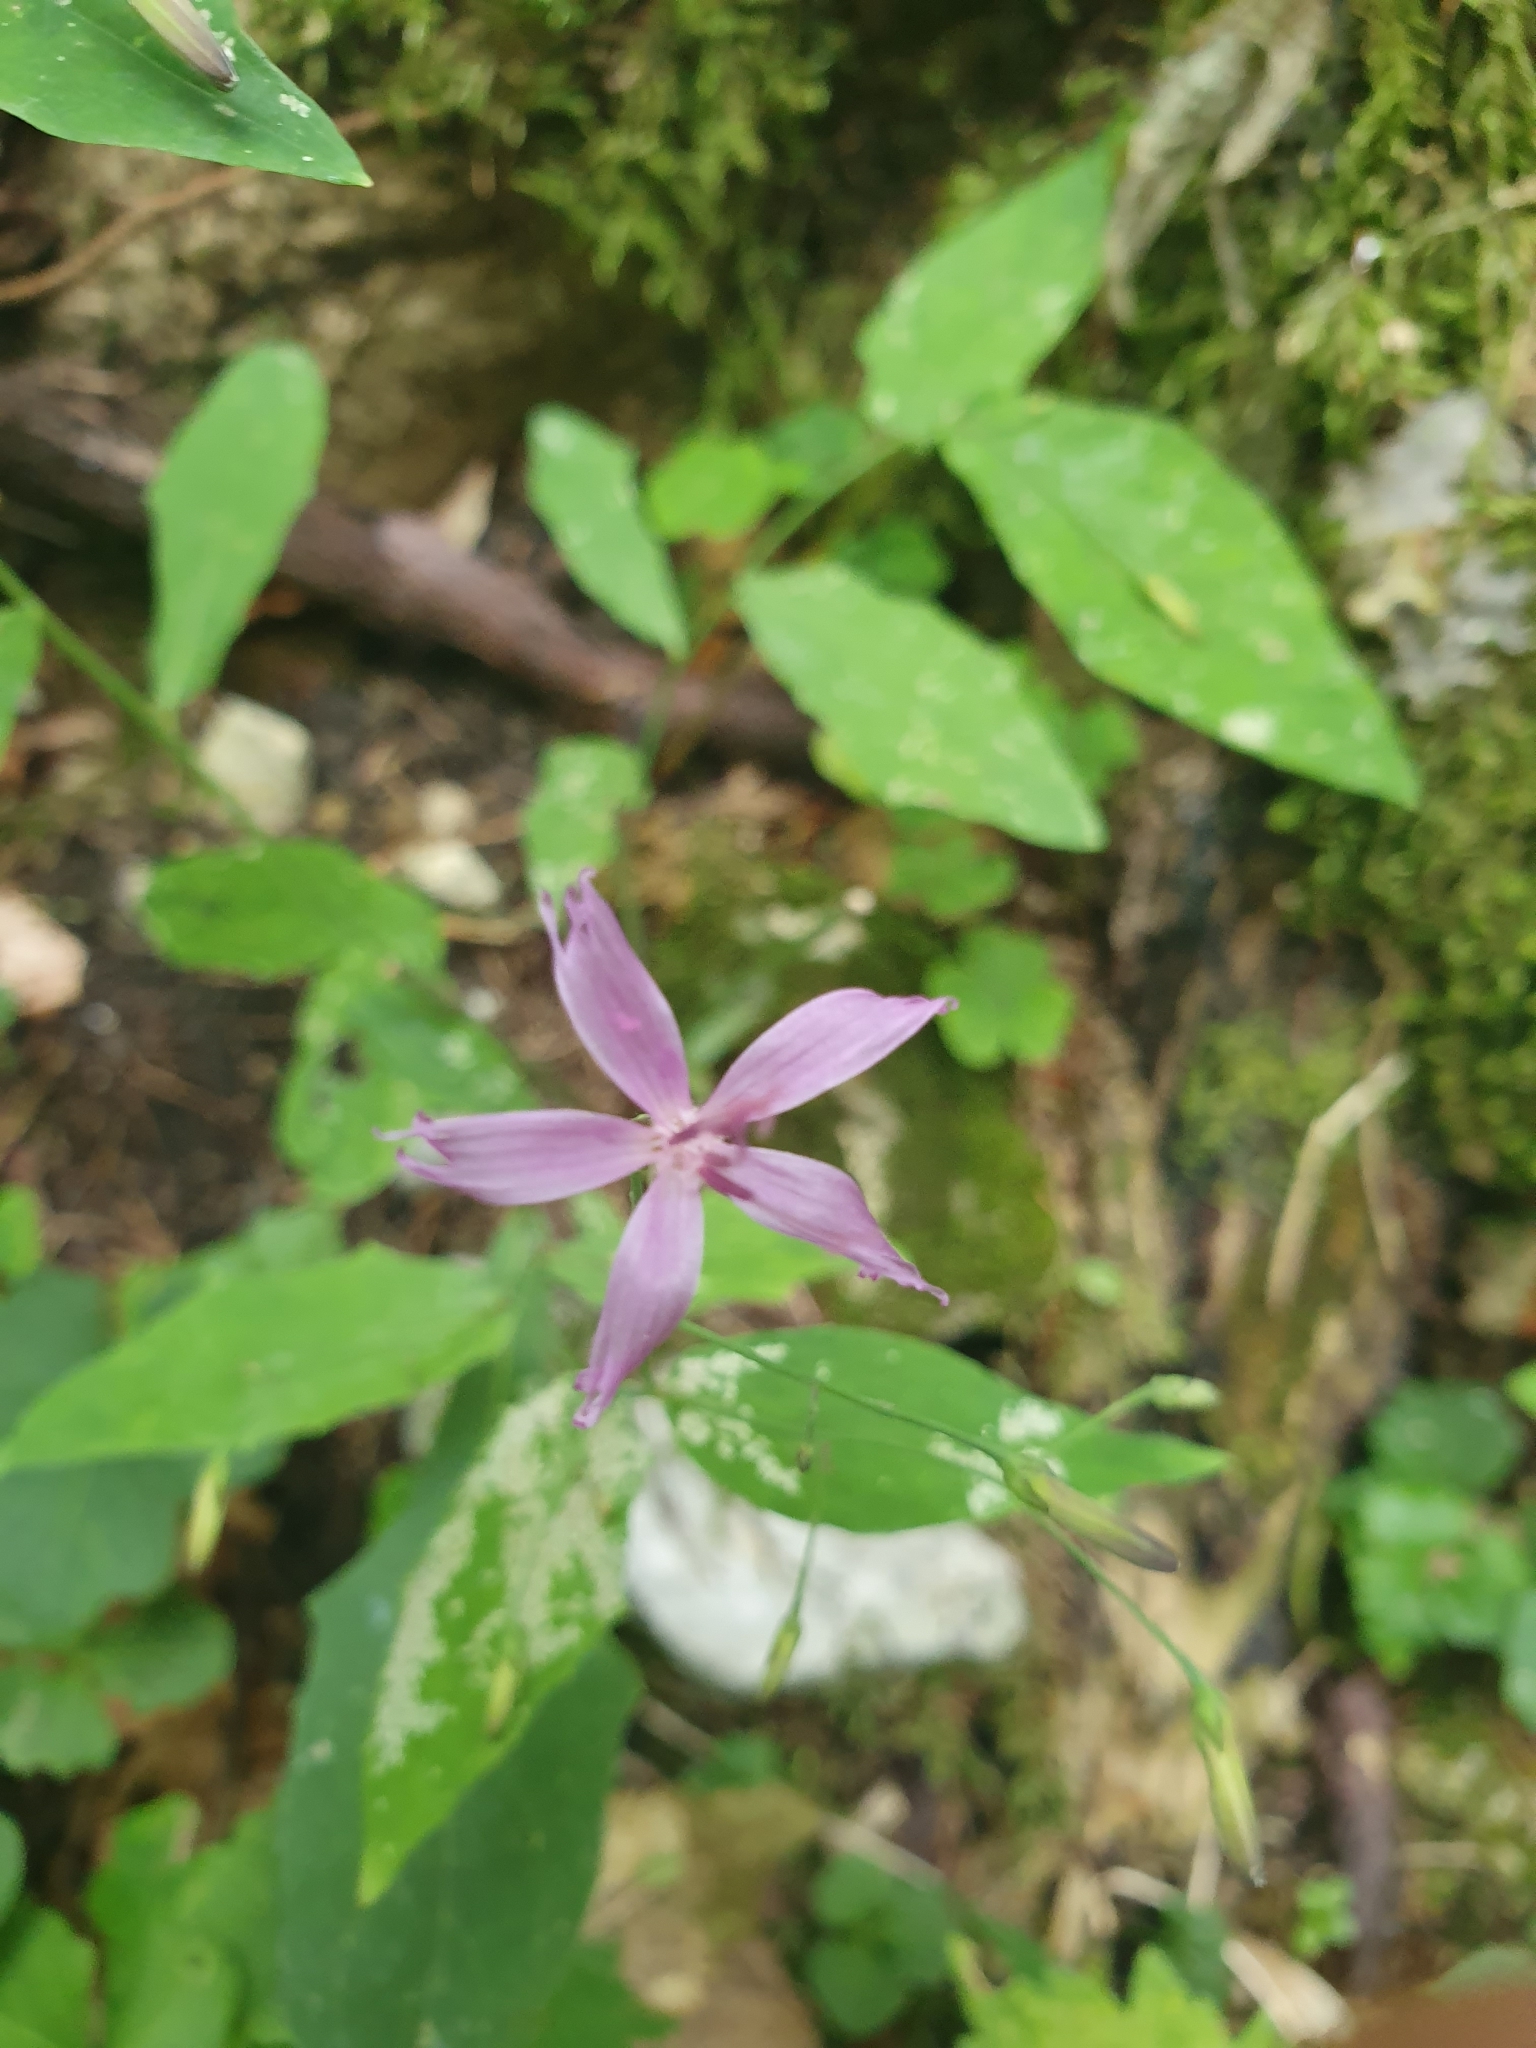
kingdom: Plantae
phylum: Tracheophyta
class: Magnoliopsida
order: Asterales
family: Asteraceae
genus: Prenanthes
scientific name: Prenanthes purpurea
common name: Purple lettuce
